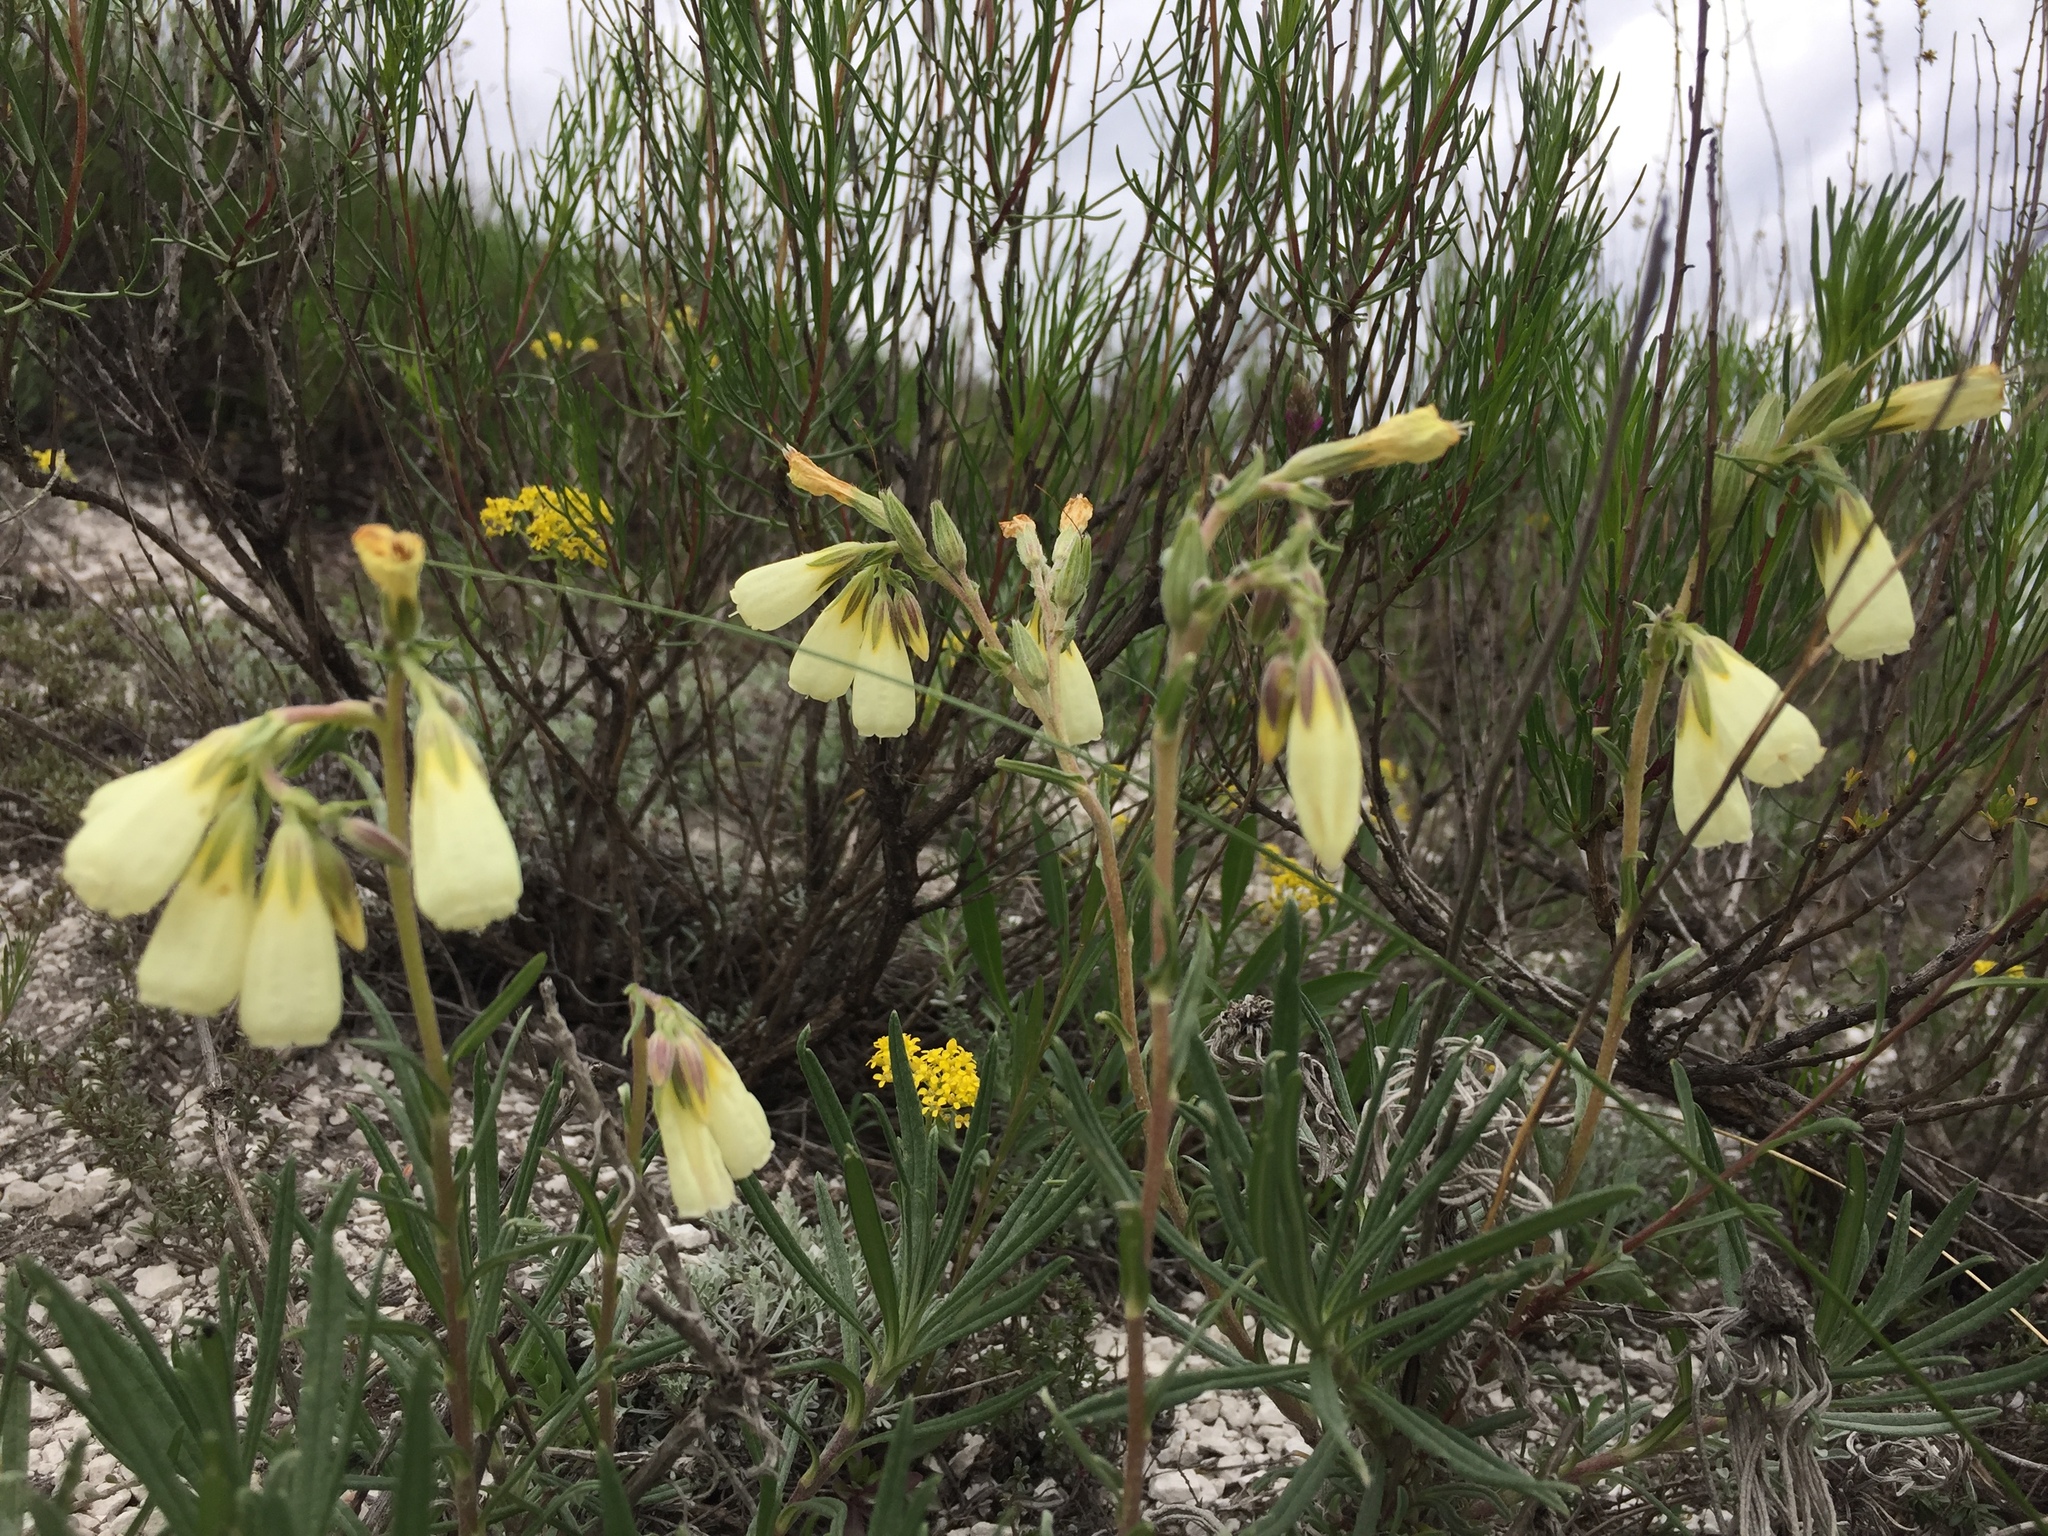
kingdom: Plantae
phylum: Tracheophyta
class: Magnoliopsida
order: Boraginales
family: Boraginaceae
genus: Onosma
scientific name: Onosma simplicissima
